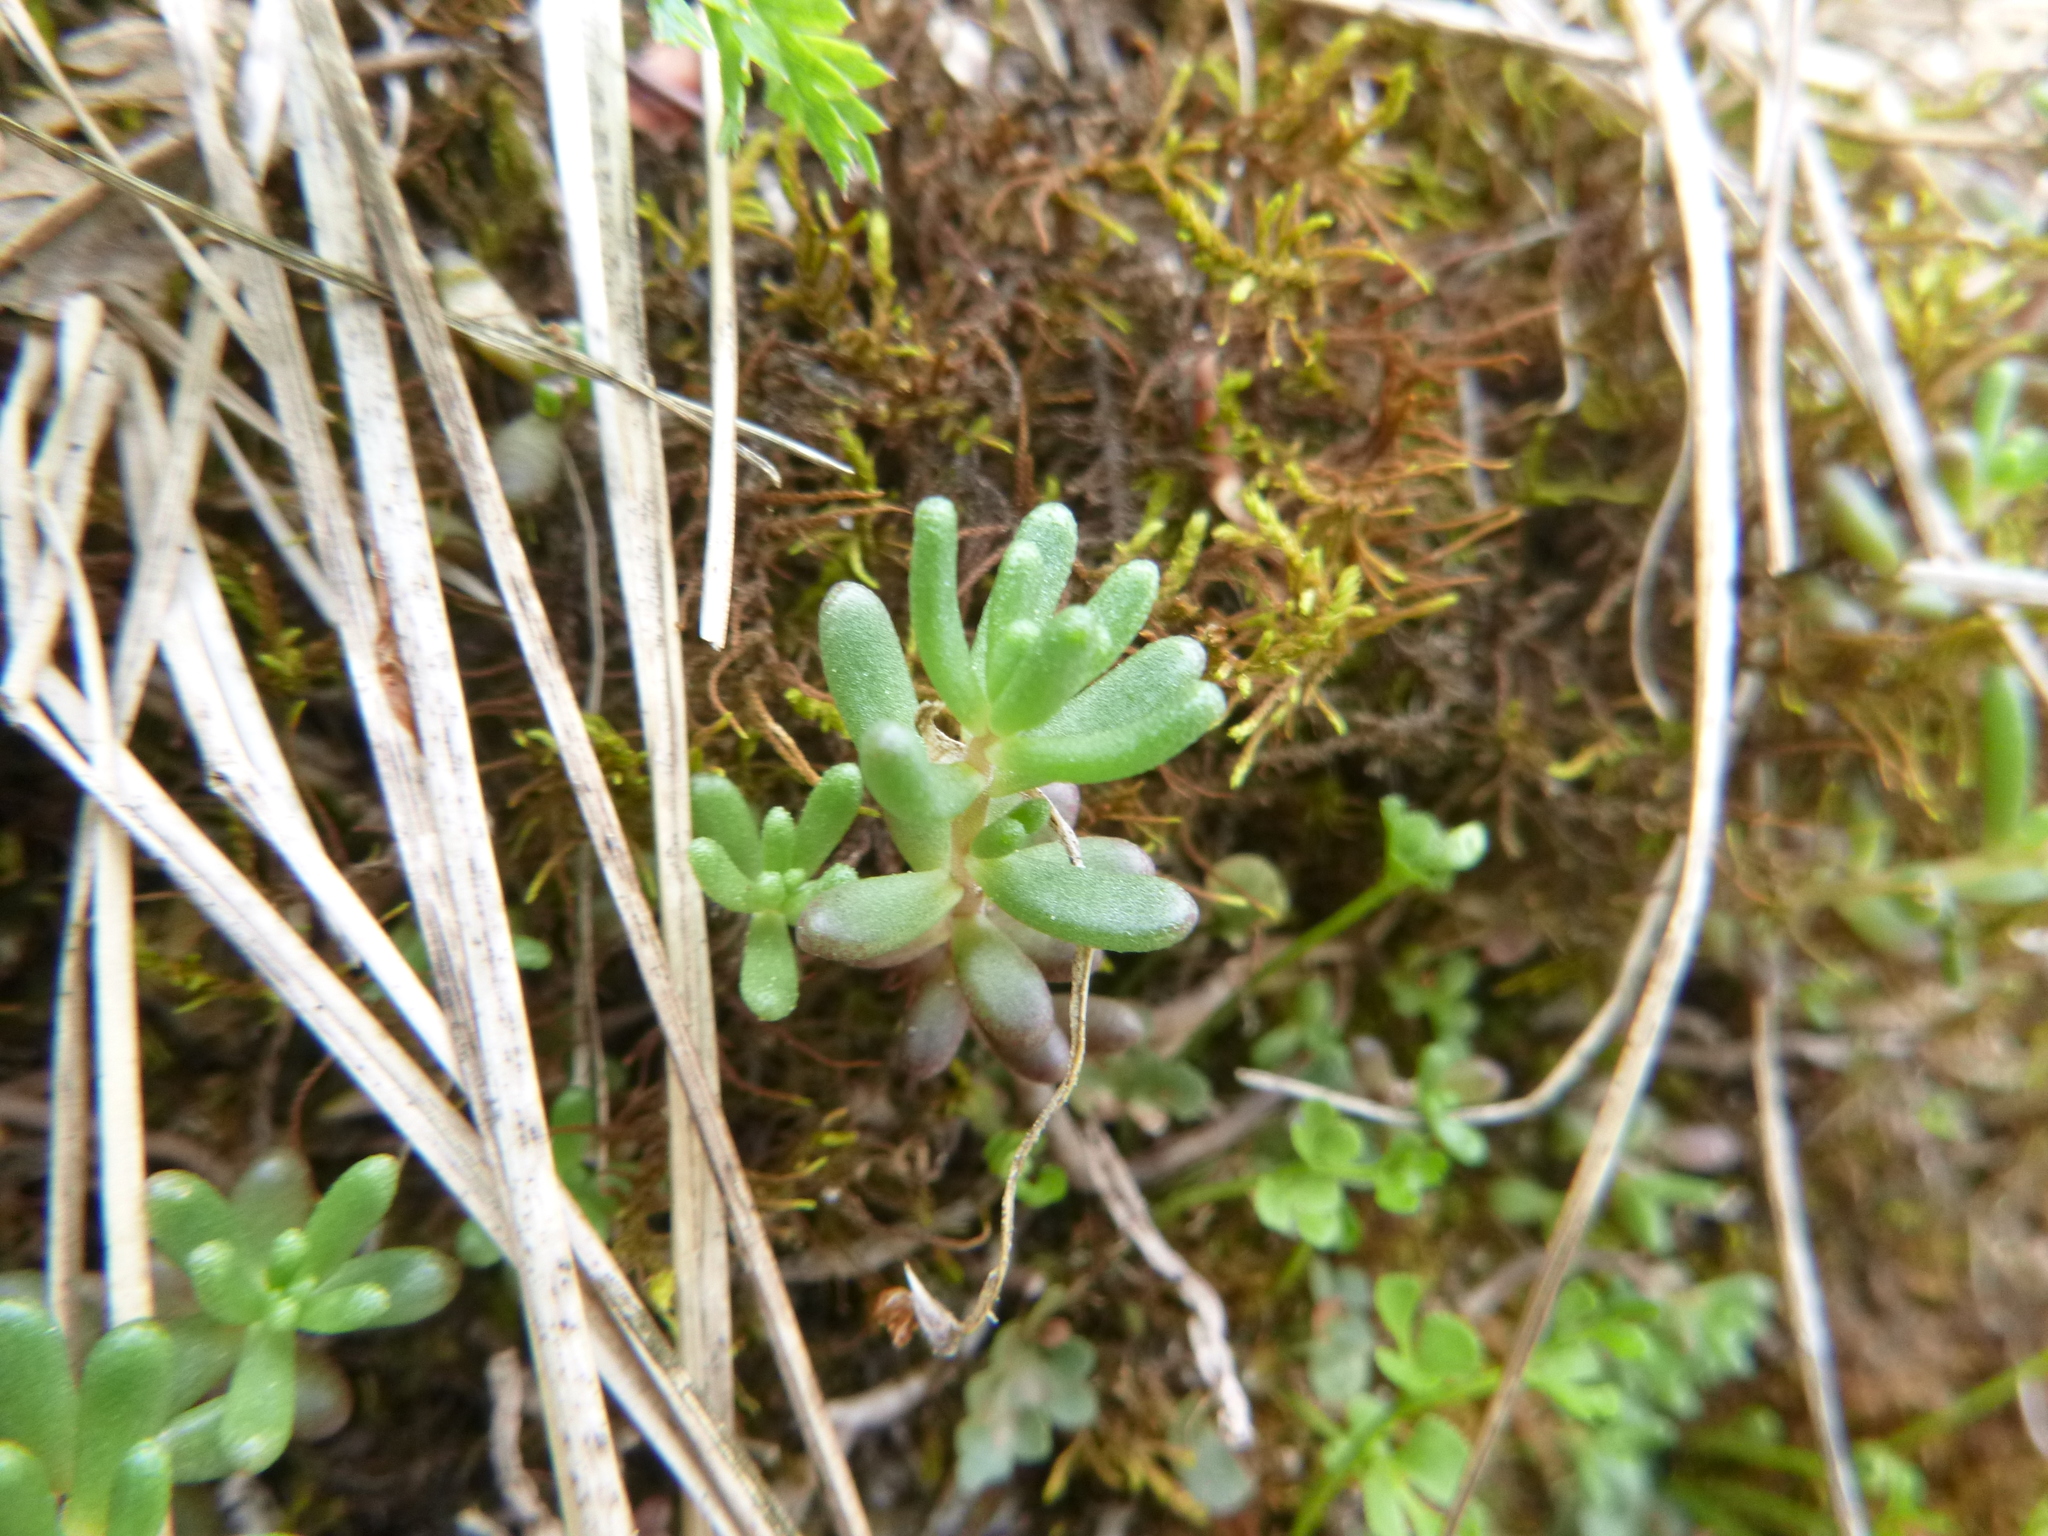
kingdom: Plantae
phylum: Tracheophyta
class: Magnoliopsida
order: Saxifragales
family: Crassulaceae
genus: Sedum
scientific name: Sedum album
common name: White stonecrop
